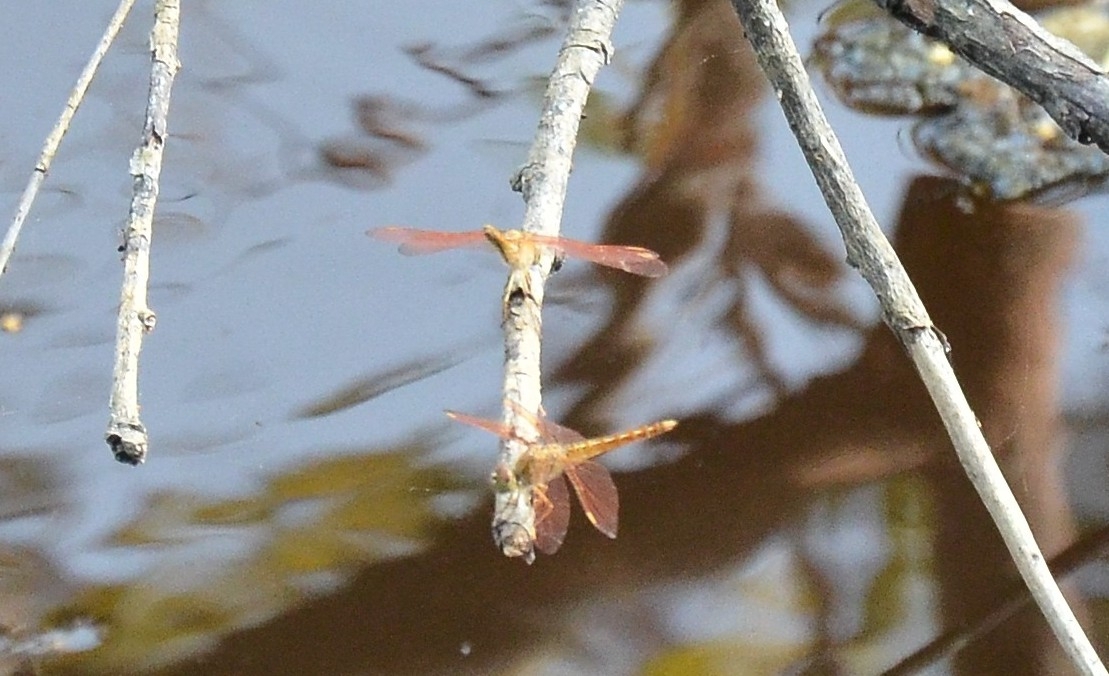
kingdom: Animalia
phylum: Arthropoda
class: Insecta
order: Odonata
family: Libellulidae
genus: Brachythemis
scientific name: Brachythemis contaminata
